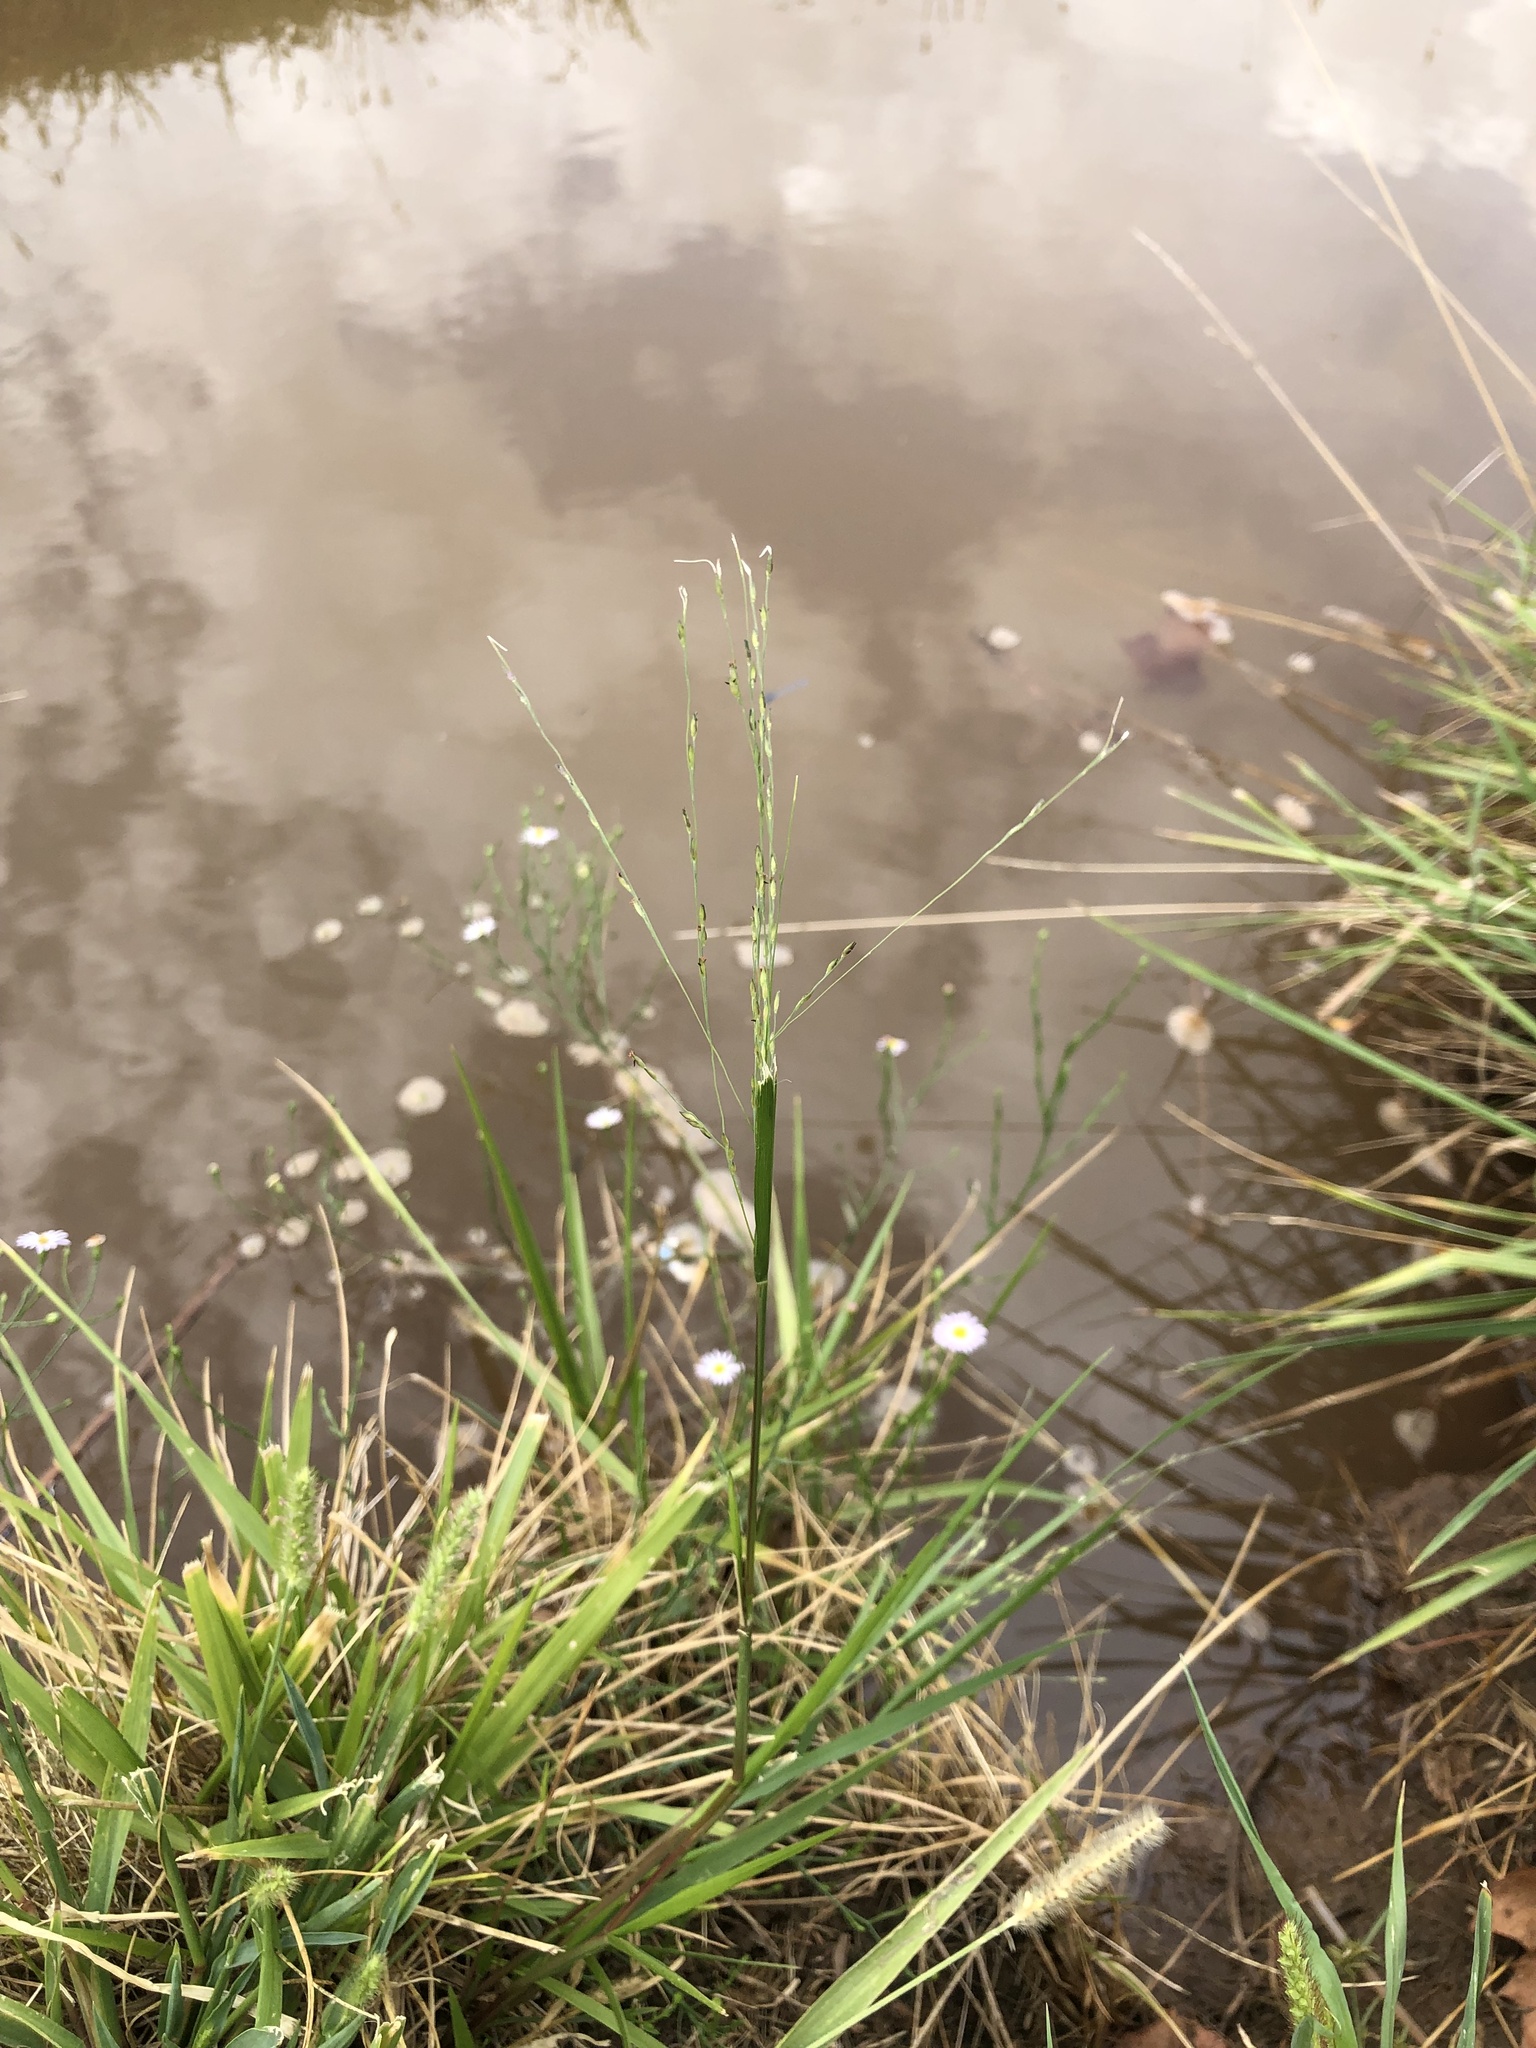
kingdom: Plantae
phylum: Tracheophyta
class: Liliopsida
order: Poales
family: Poaceae
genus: Panicum
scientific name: Panicum dichotomiflorum
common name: Autumn millet
